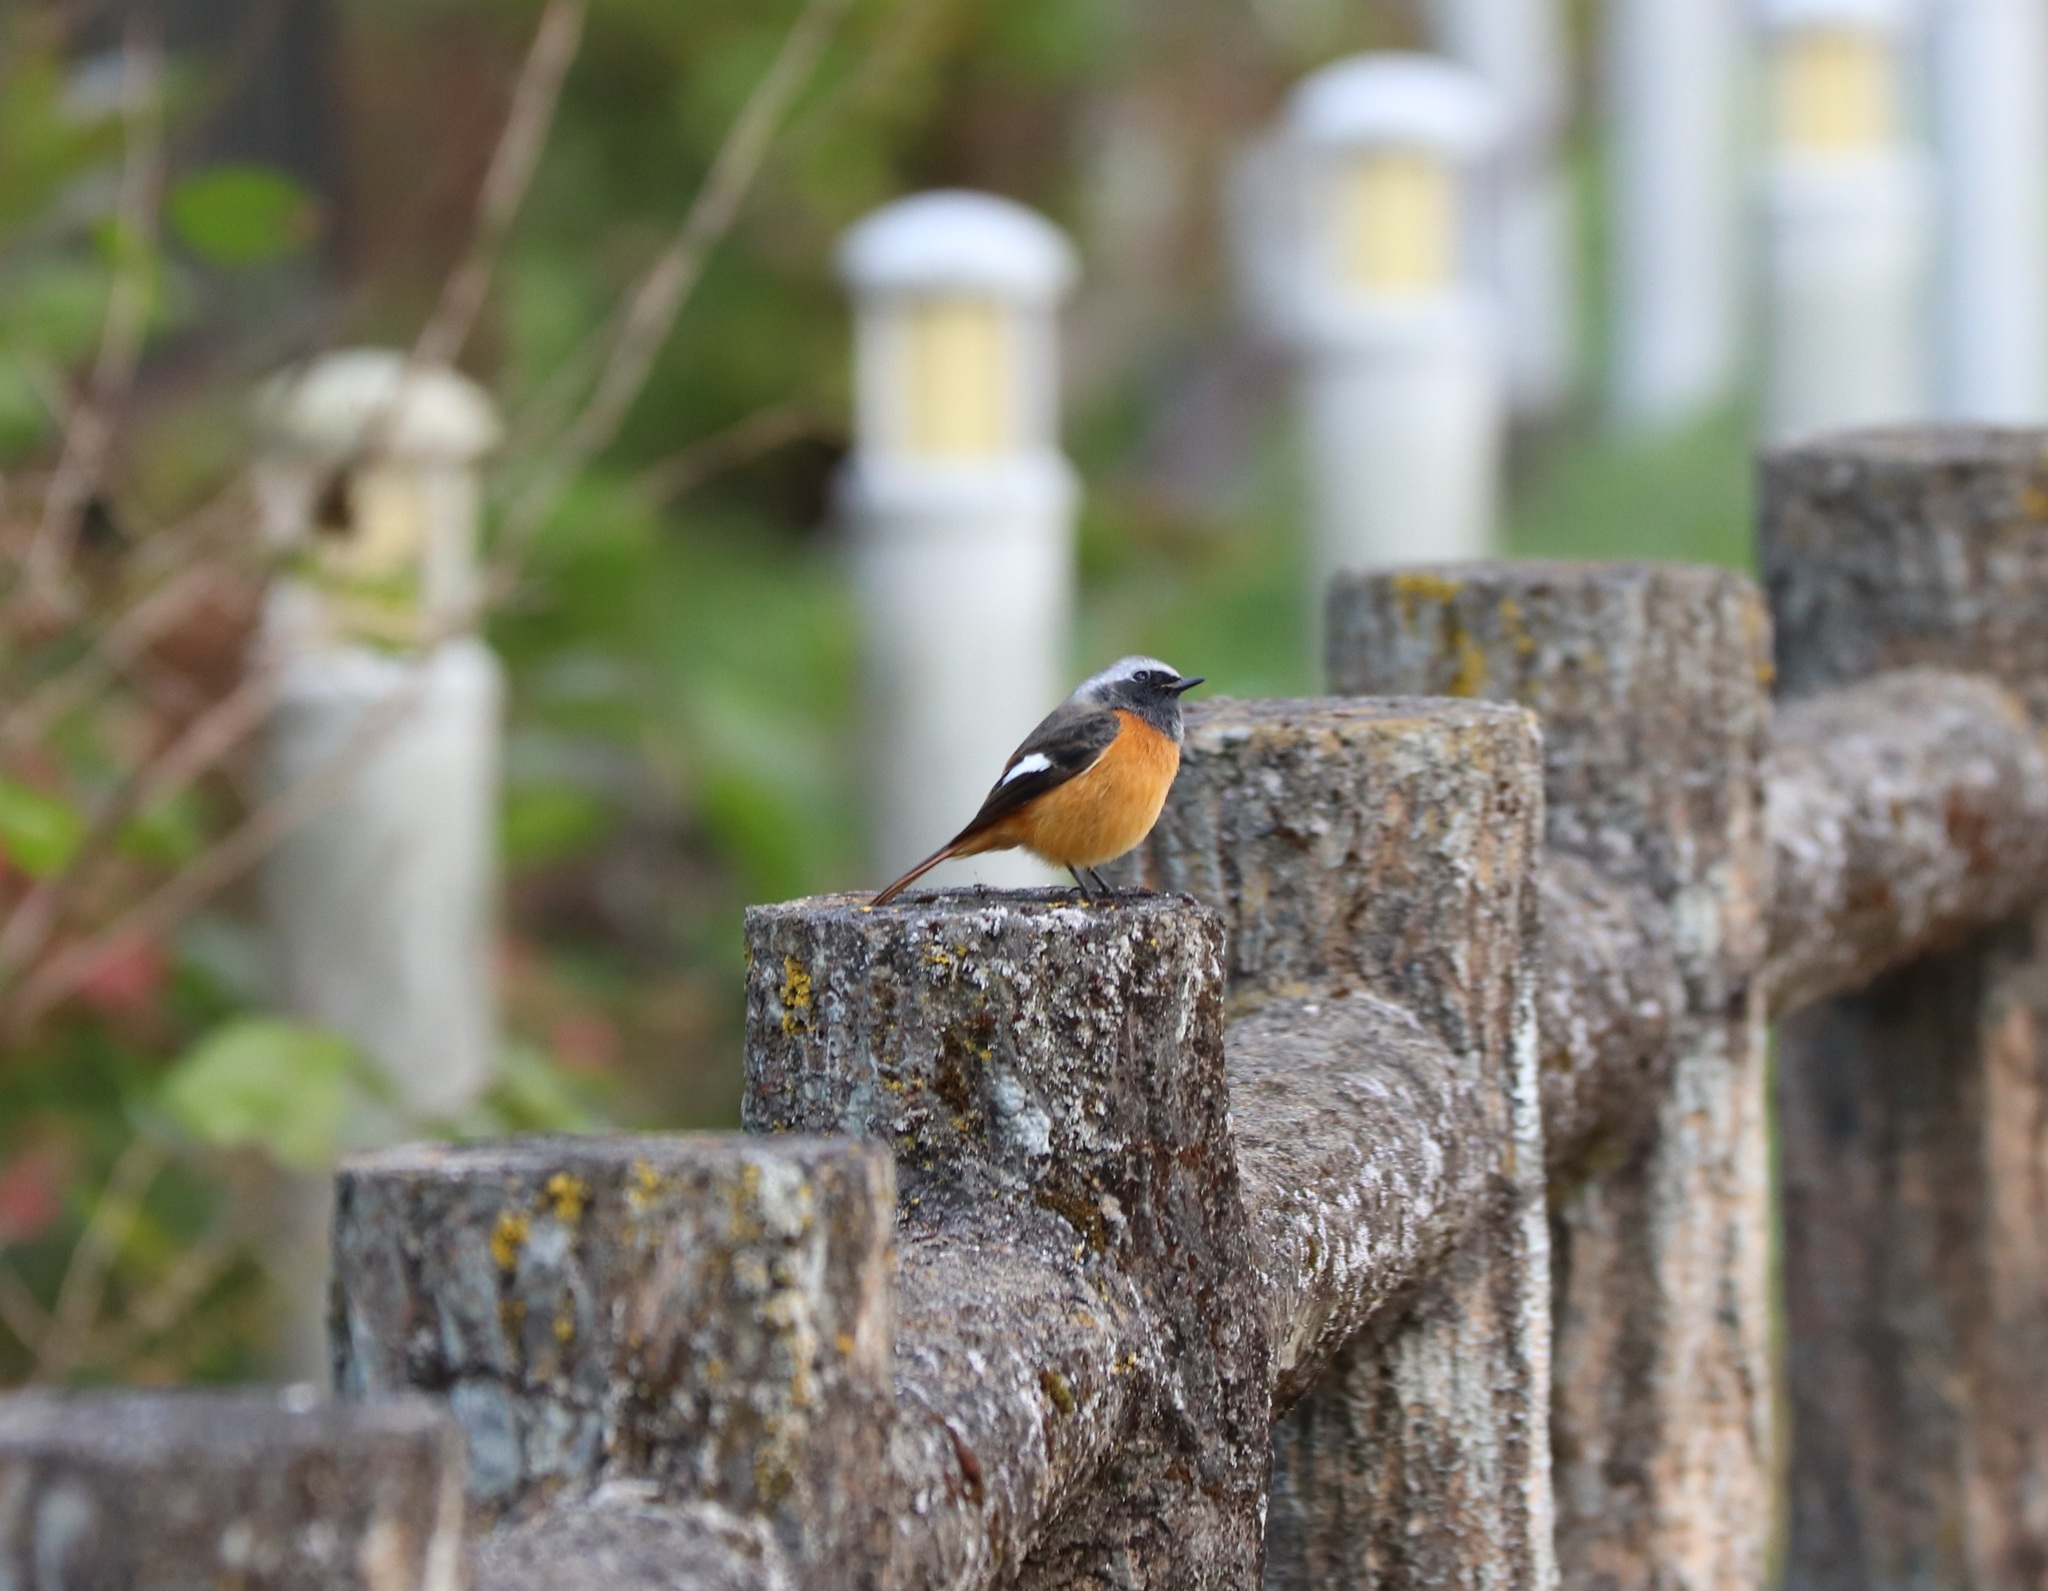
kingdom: Animalia
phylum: Chordata
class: Aves
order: Passeriformes
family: Muscicapidae
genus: Phoenicurus
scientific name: Phoenicurus auroreus
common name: Daurian redstart
